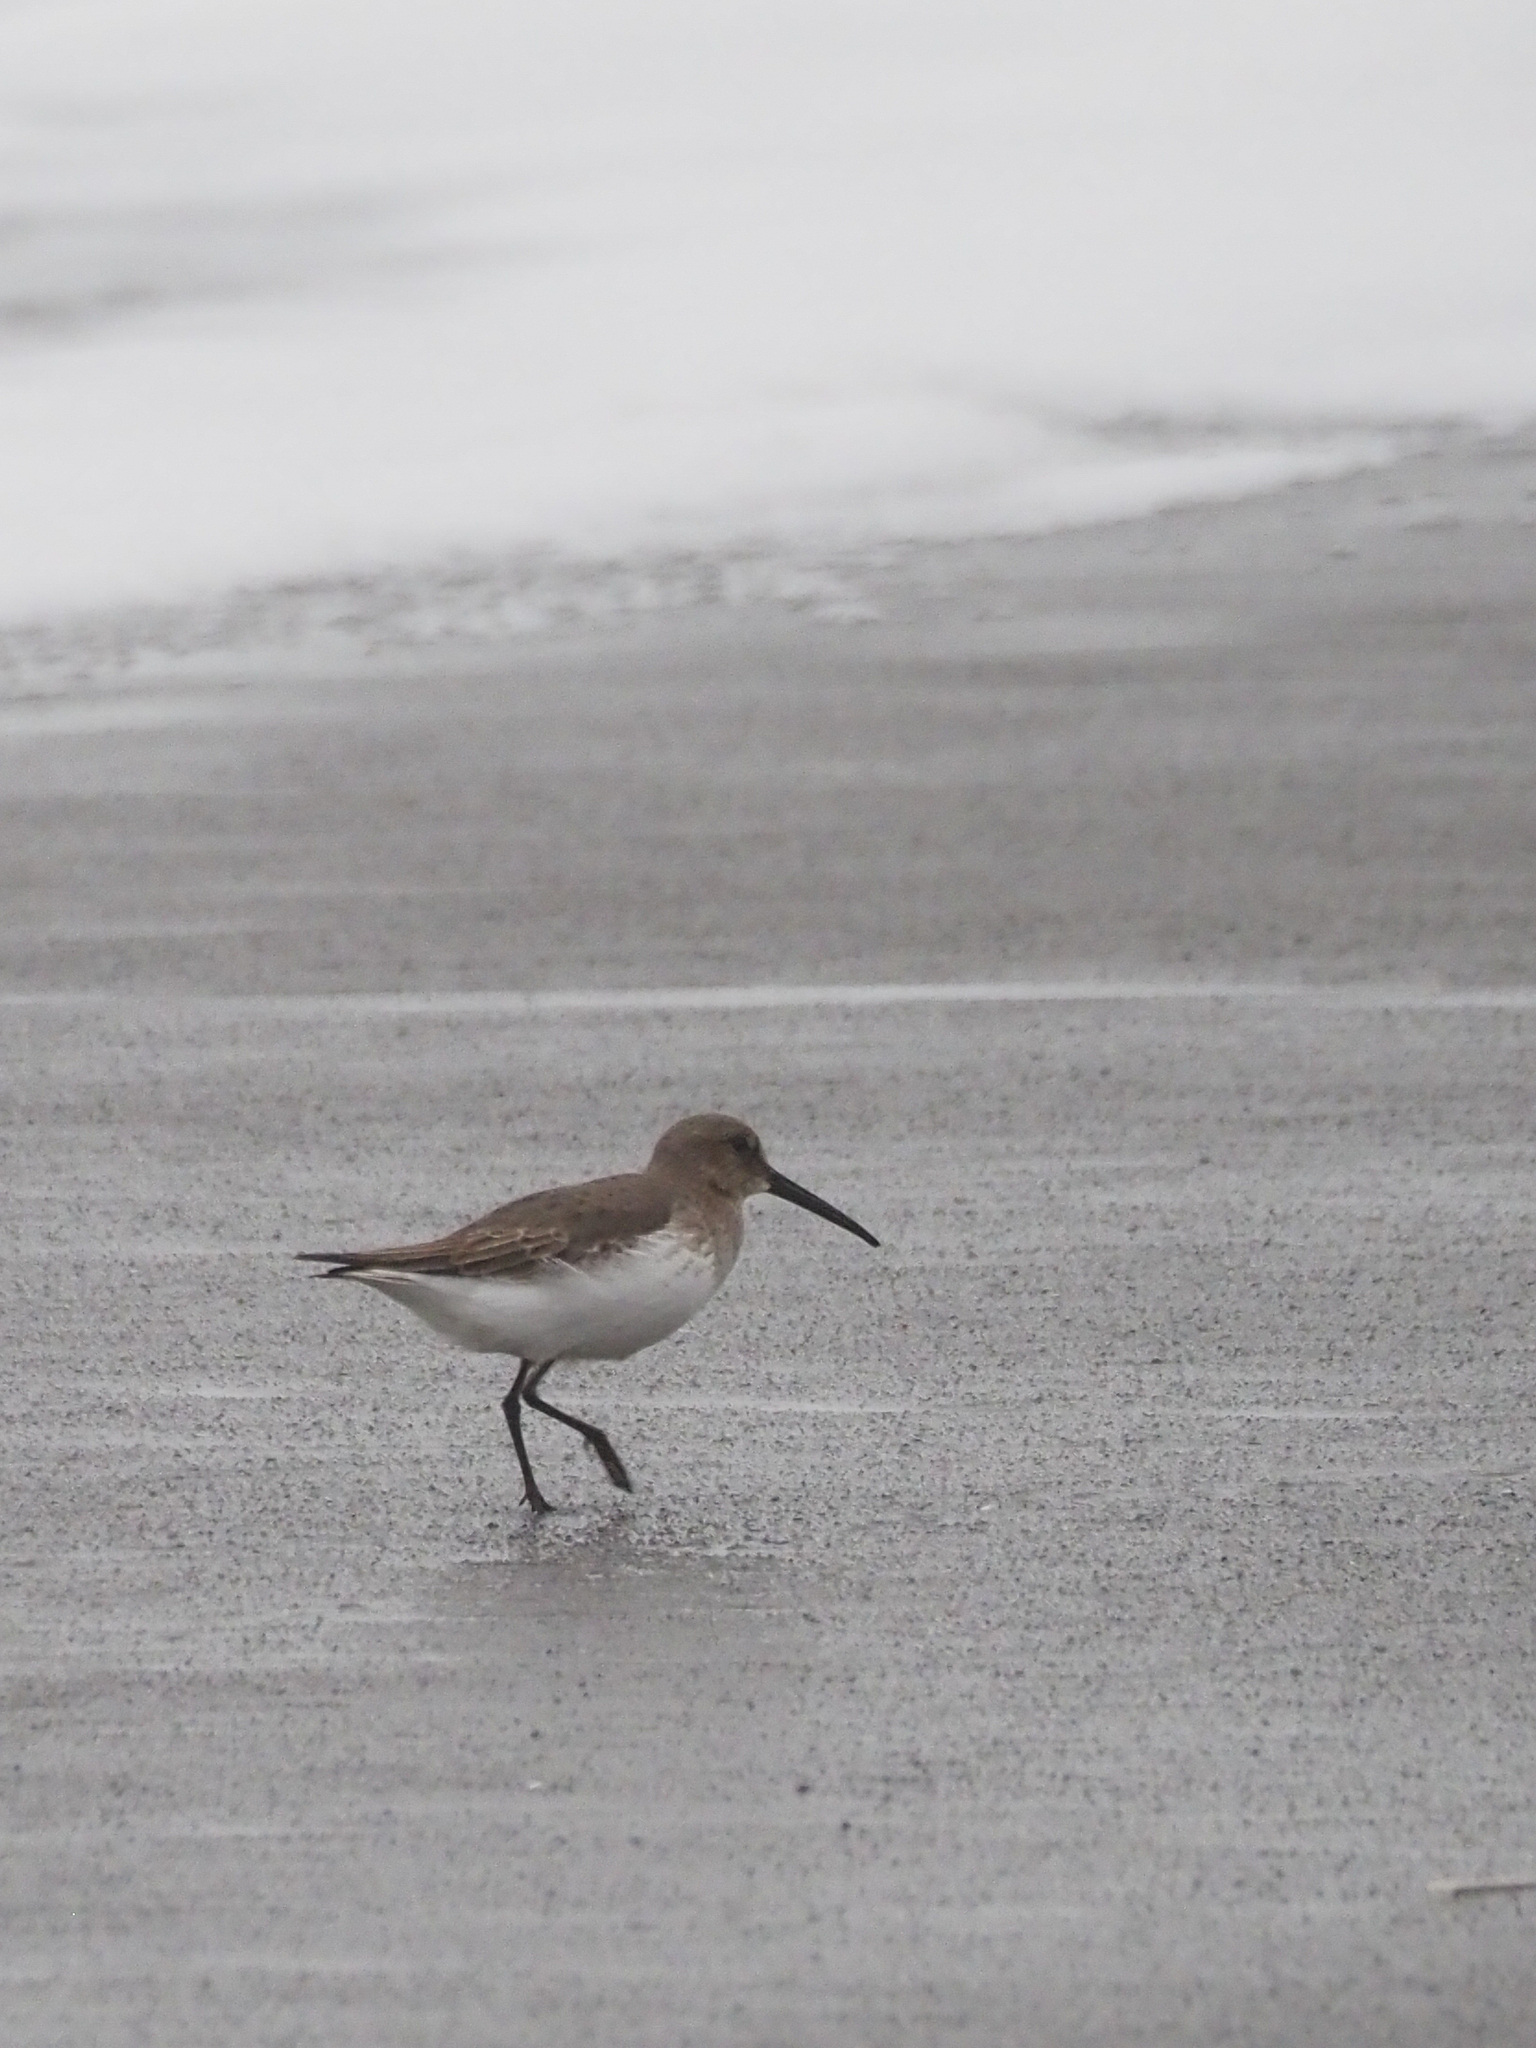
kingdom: Animalia
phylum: Chordata
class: Aves
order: Charadriiformes
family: Scolopacidae
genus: Calidris
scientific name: Calidris alpina
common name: Dunlin
